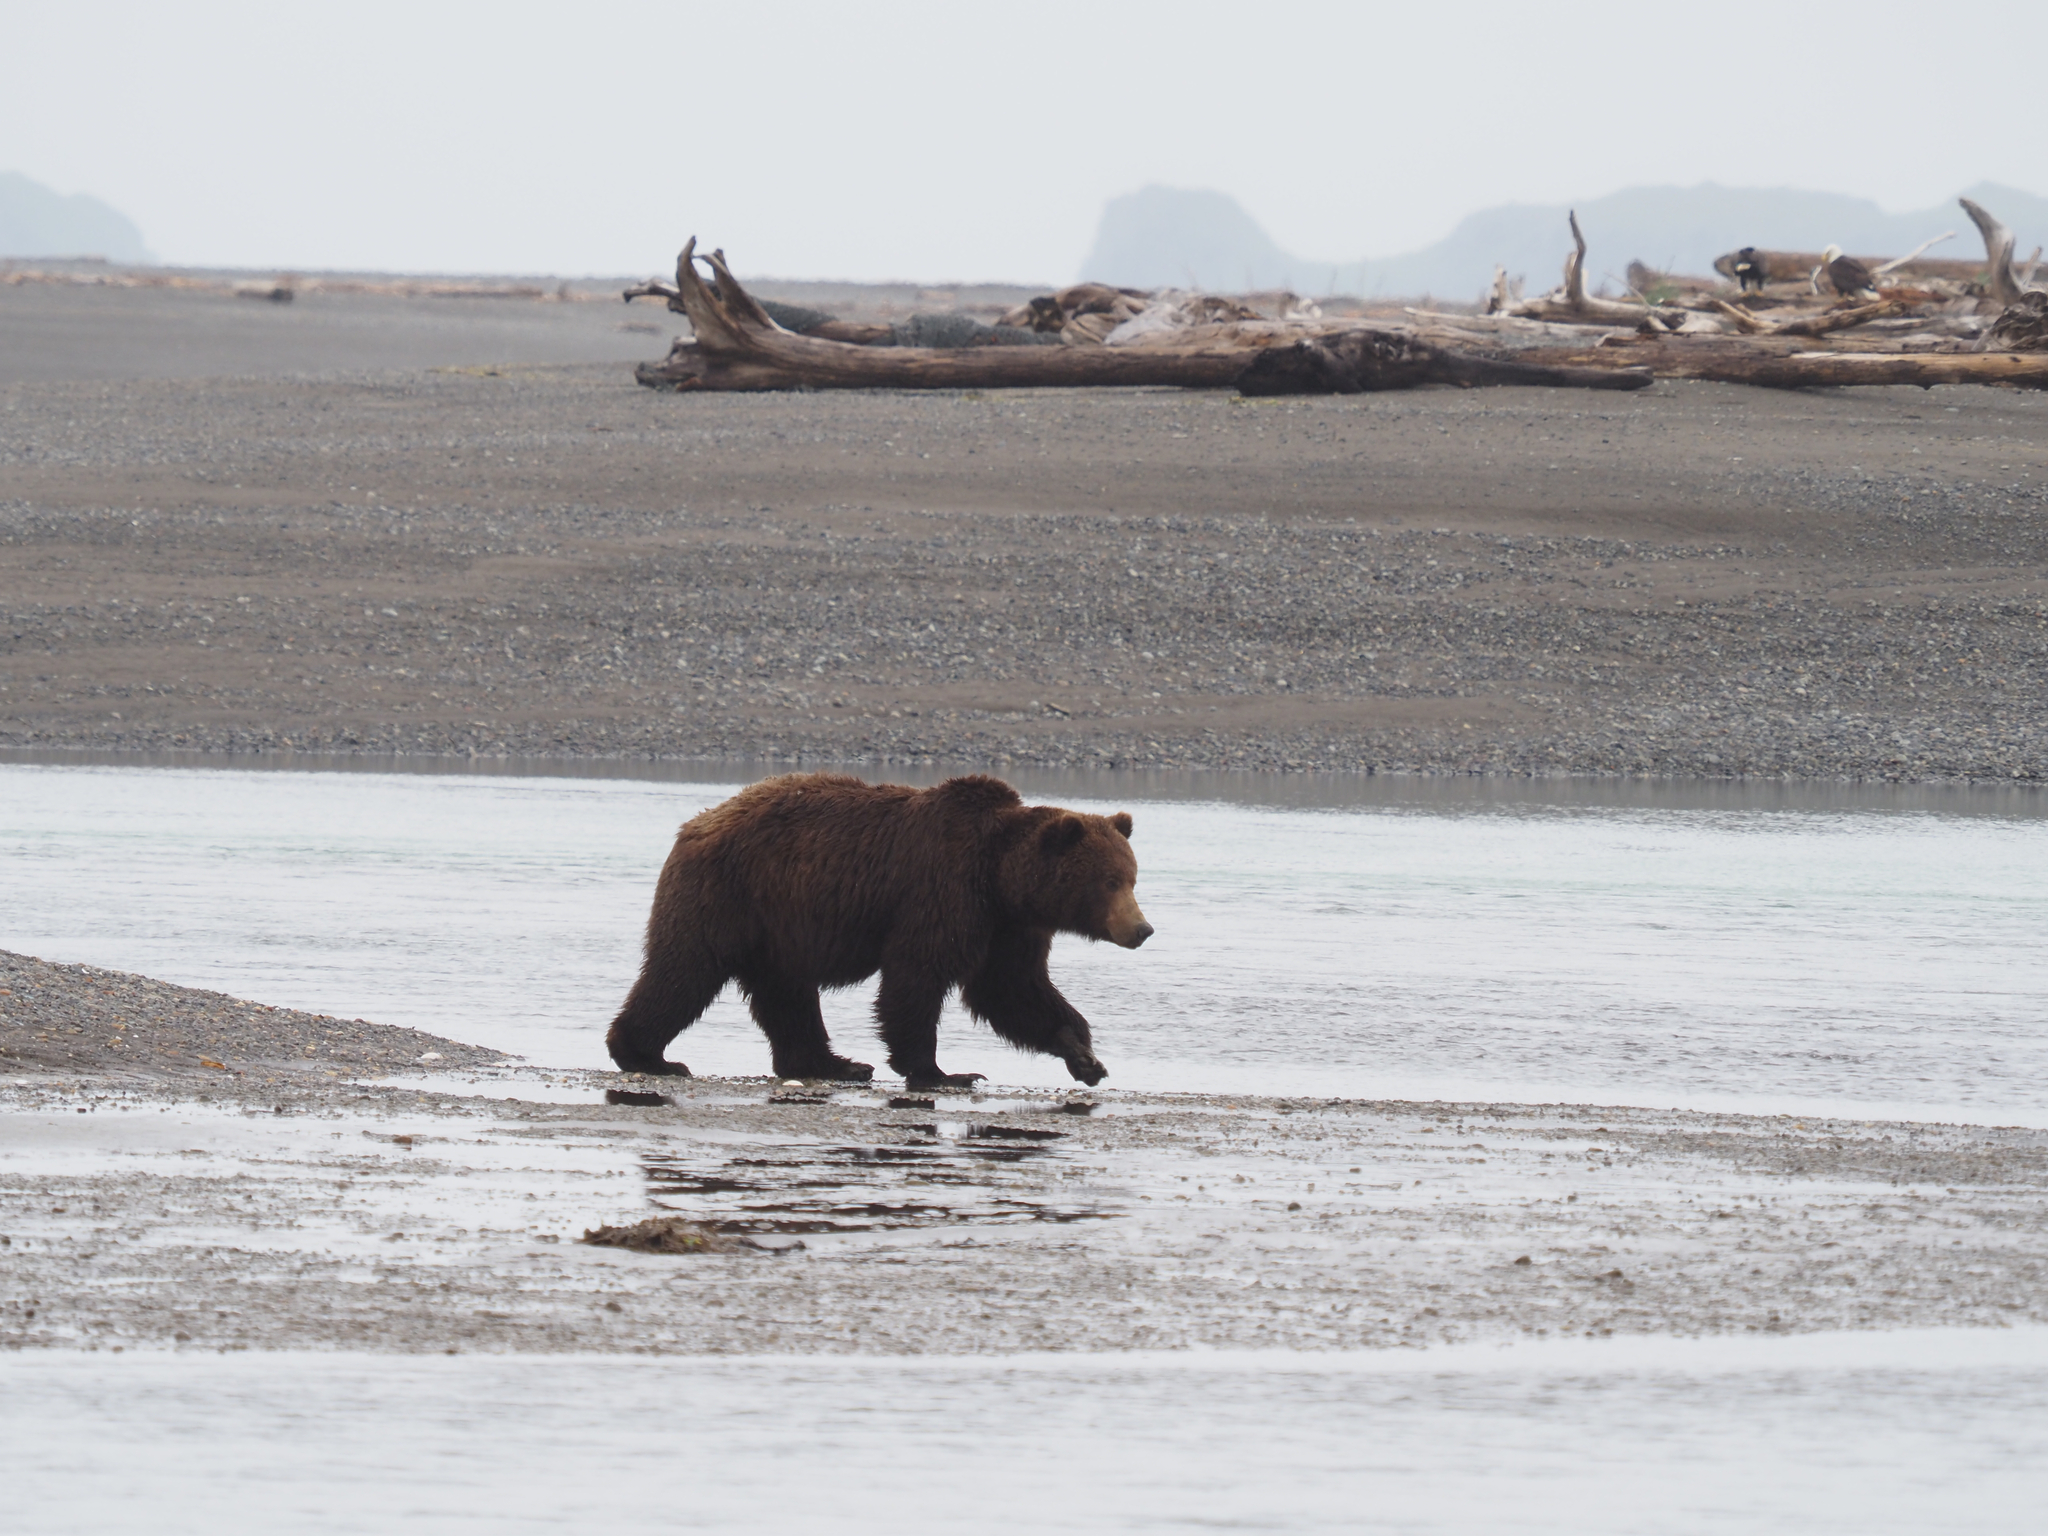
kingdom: Animalia
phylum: Chordata
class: Mammalia
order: Carnivora
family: Ursidae
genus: Ursus
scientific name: Ursus arctos
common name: Brown bear
